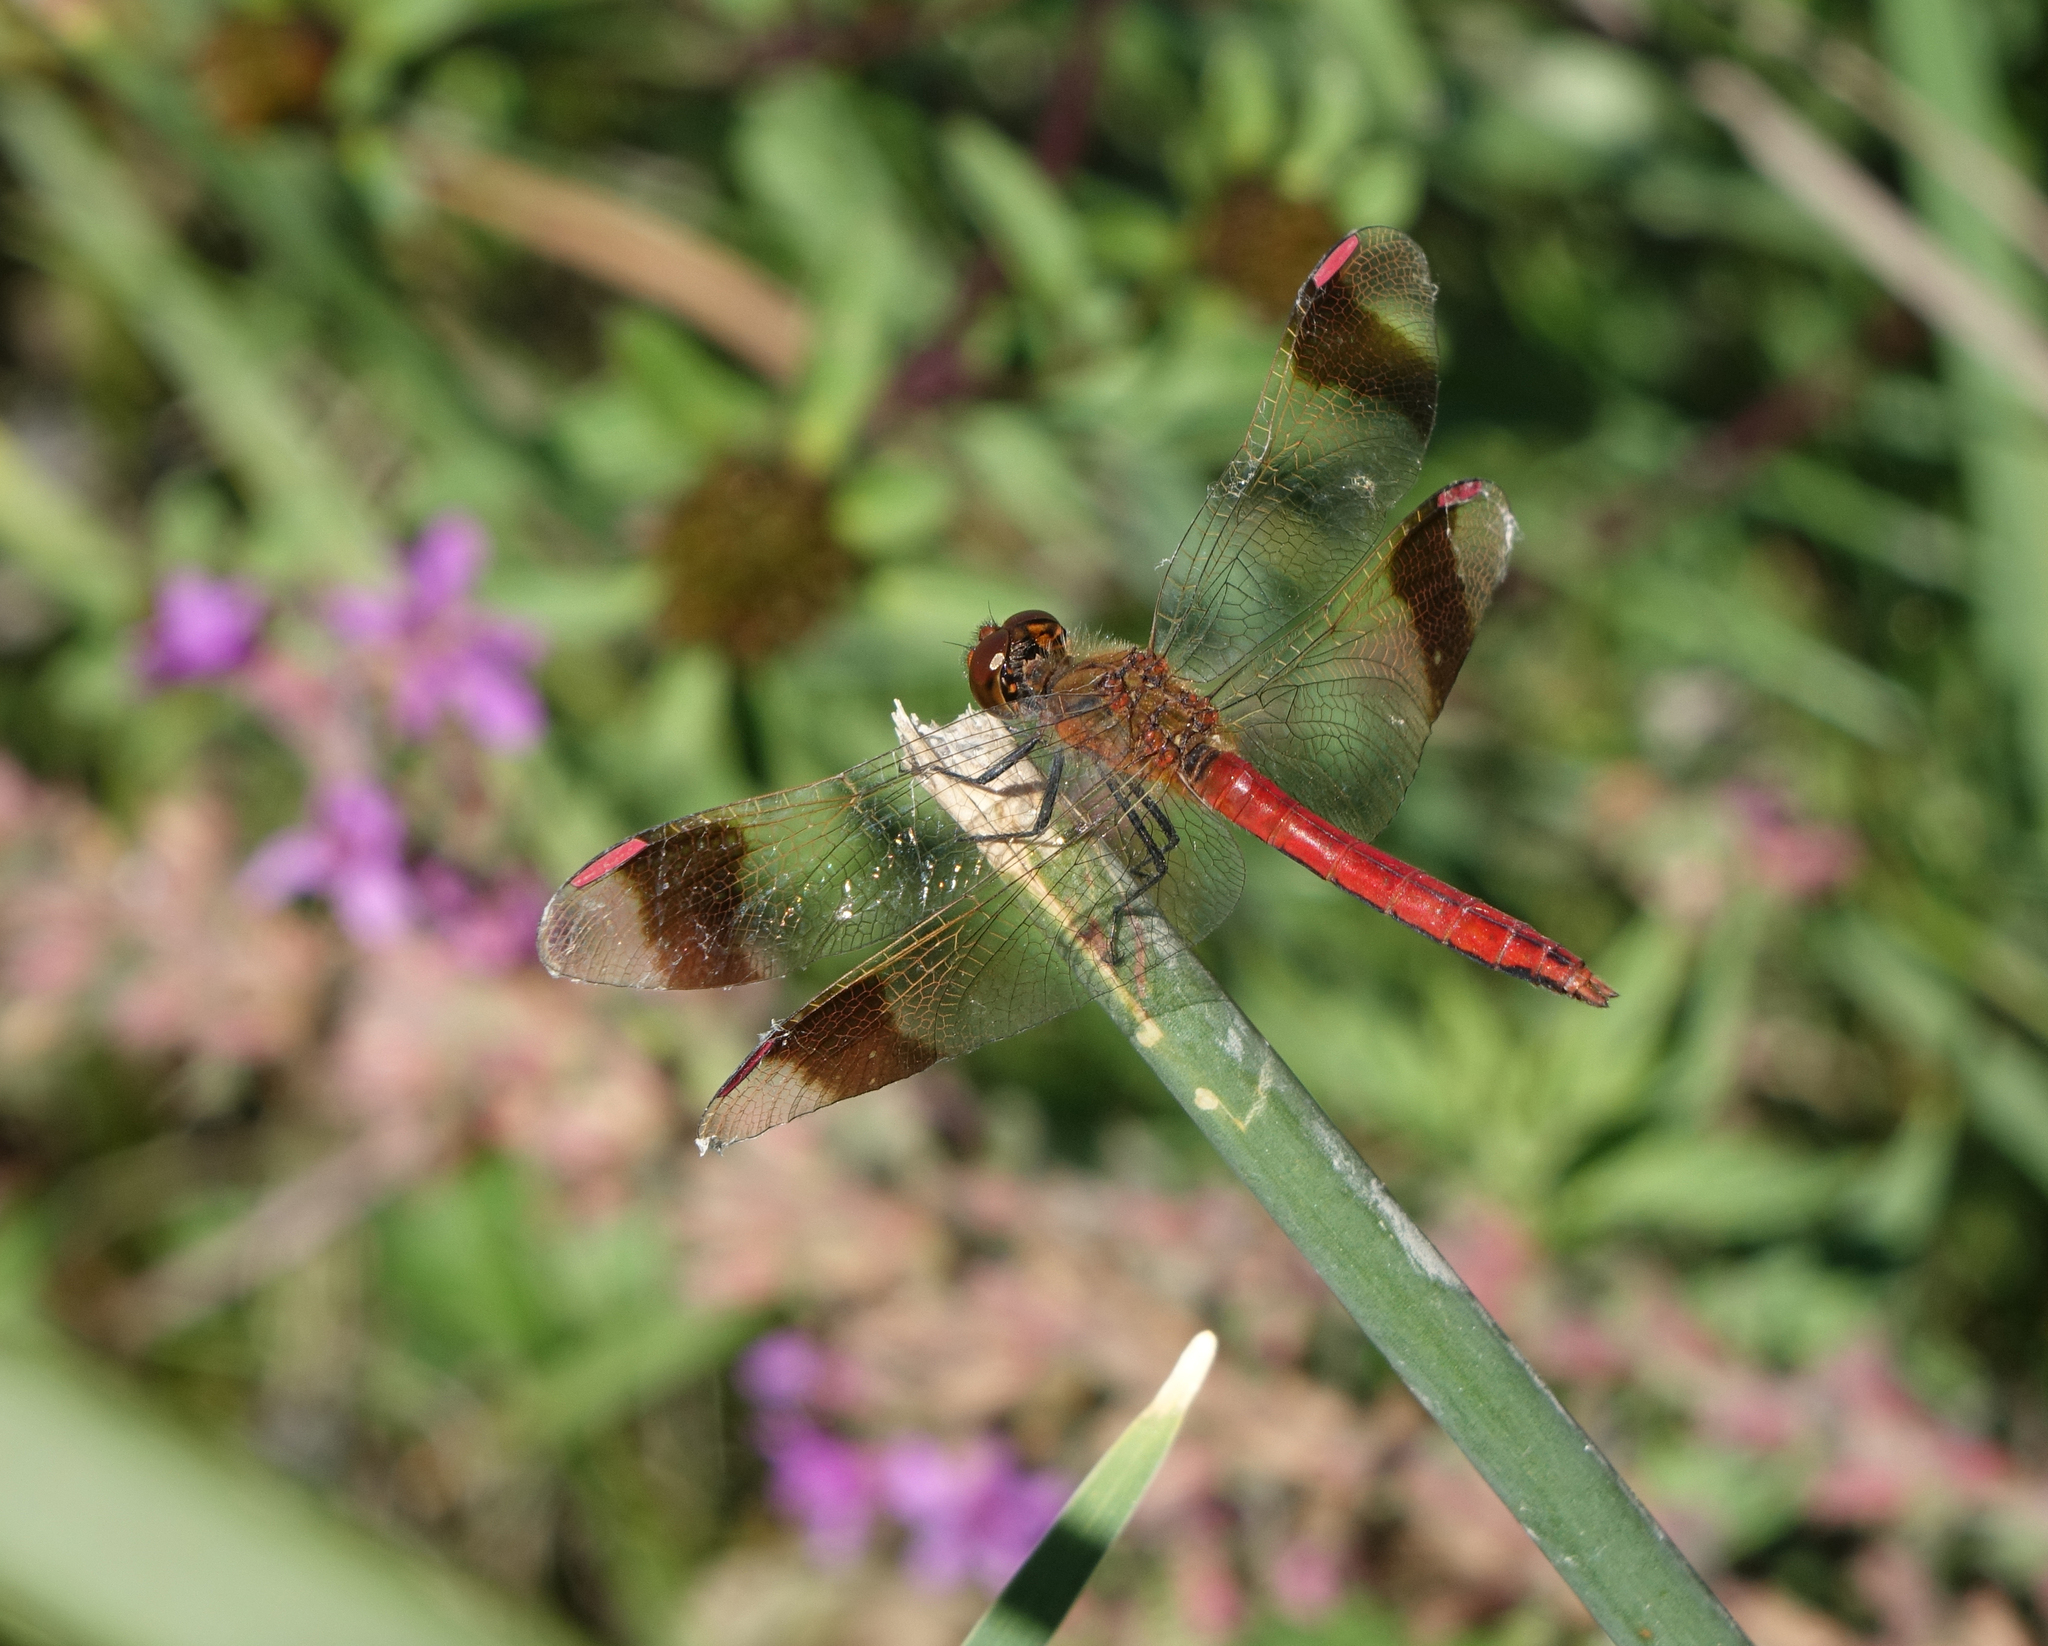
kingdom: Animalia
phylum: Arthropoda
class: Insecta
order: Odonata
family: Libellulidae
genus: Sympetrum
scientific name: Sympetrum pedemontanum
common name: Banded darter
